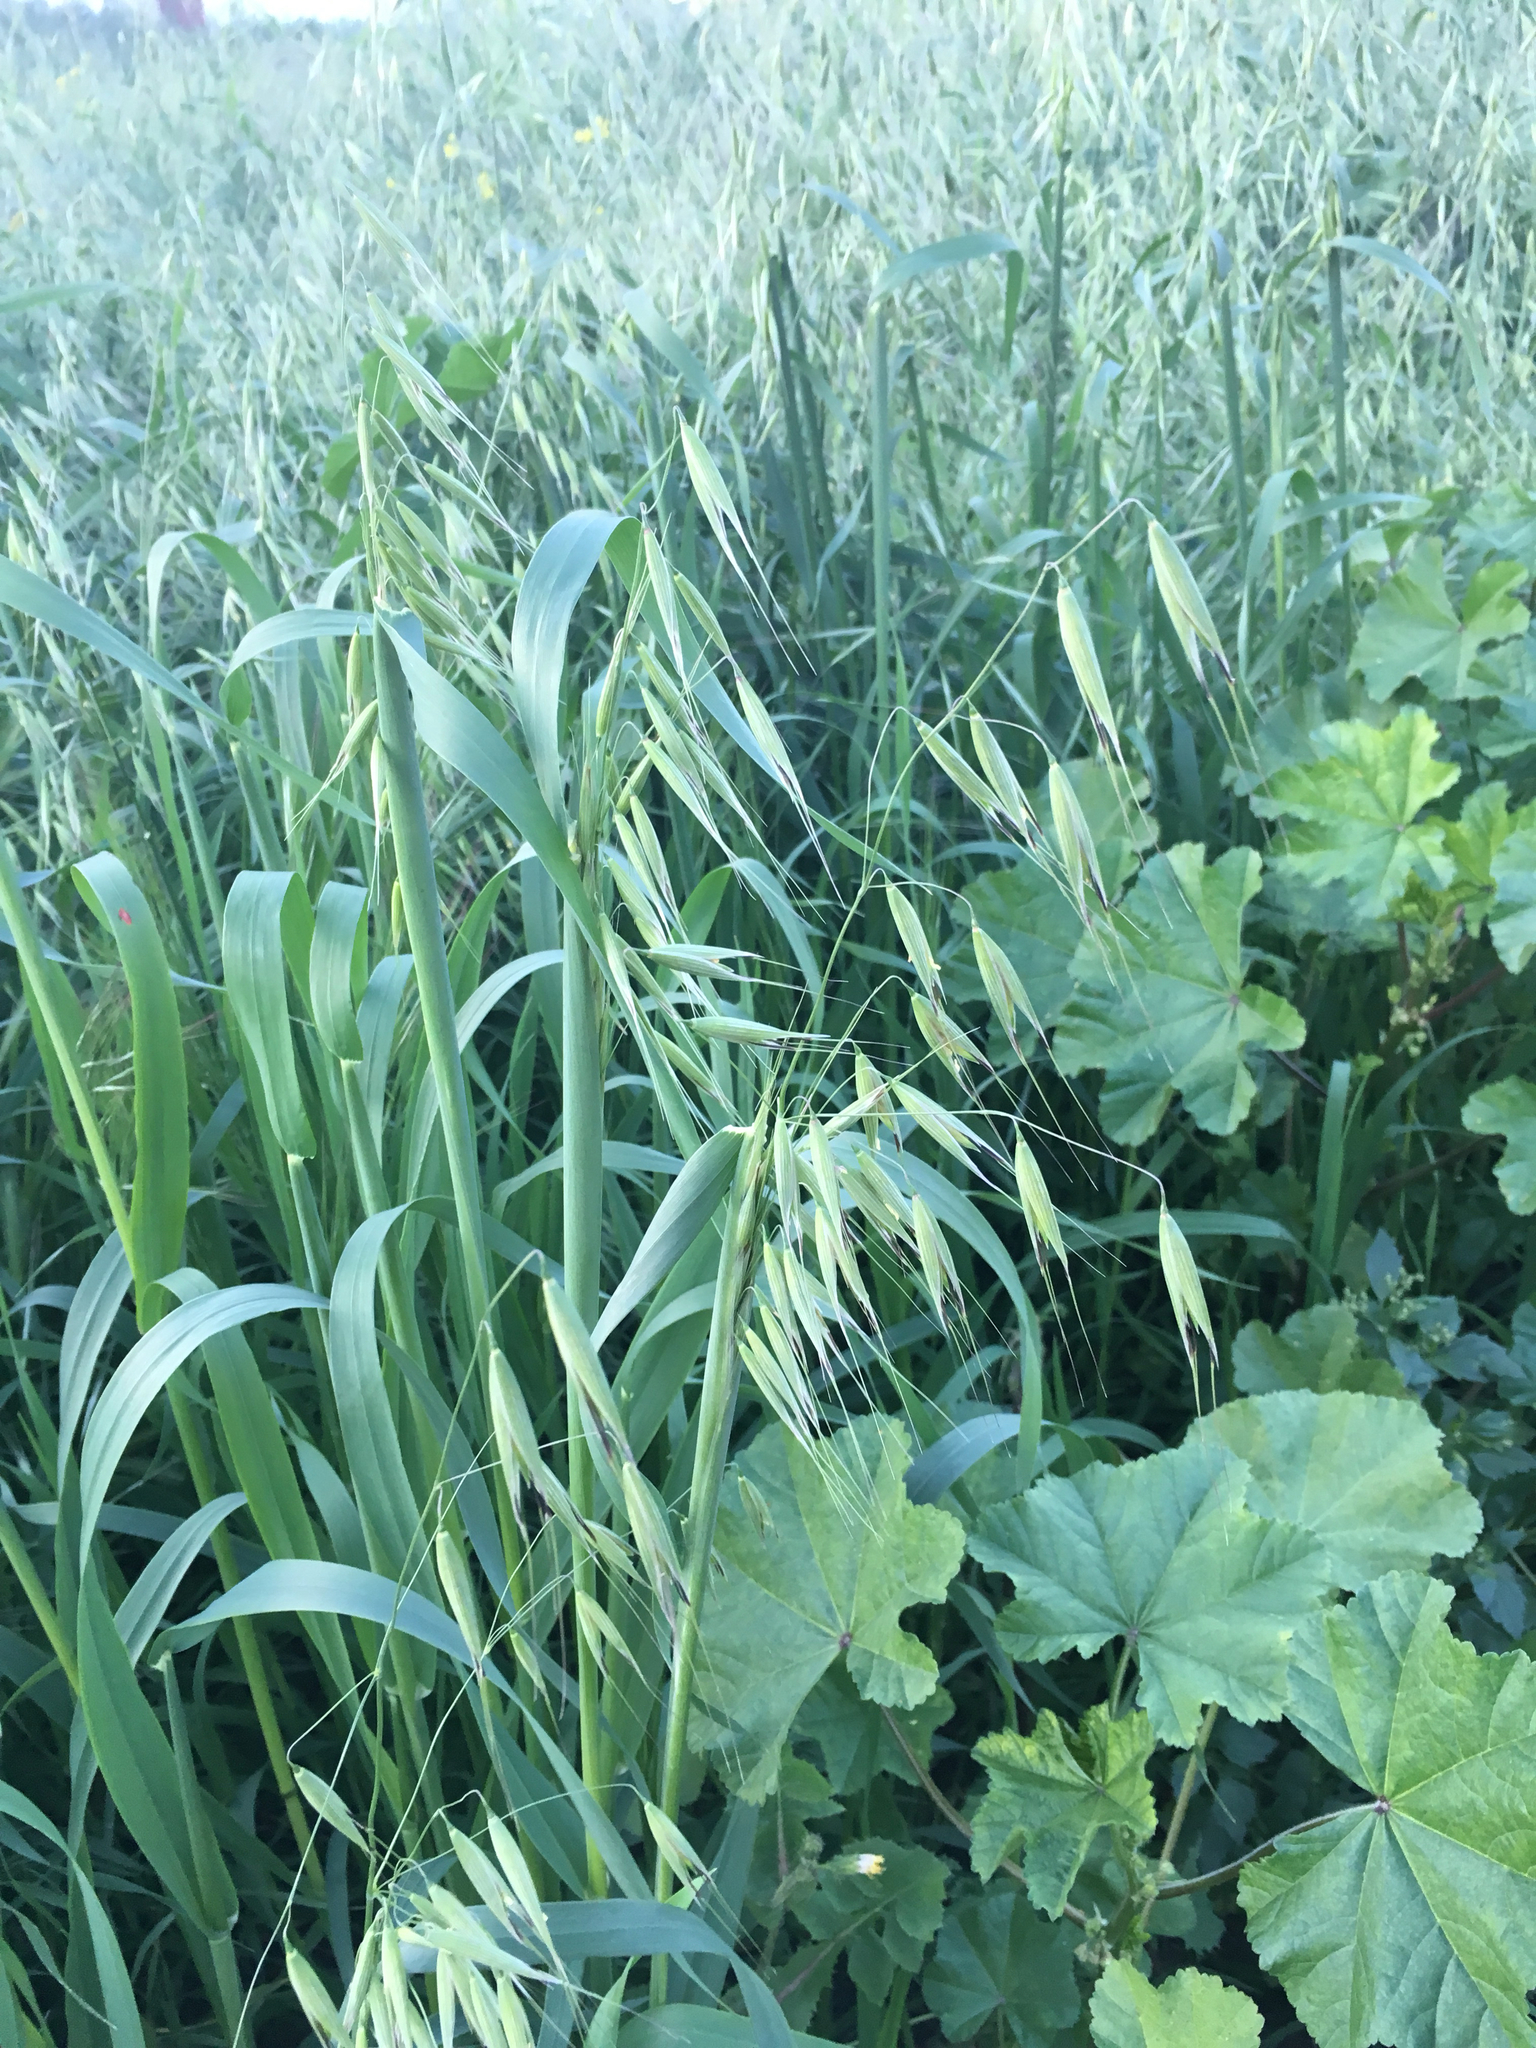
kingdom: Plantae
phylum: Tracheophyta
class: Liliopsida
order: Poales
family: Poaceae
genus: Avena
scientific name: Avena fatua
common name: Wild oat
